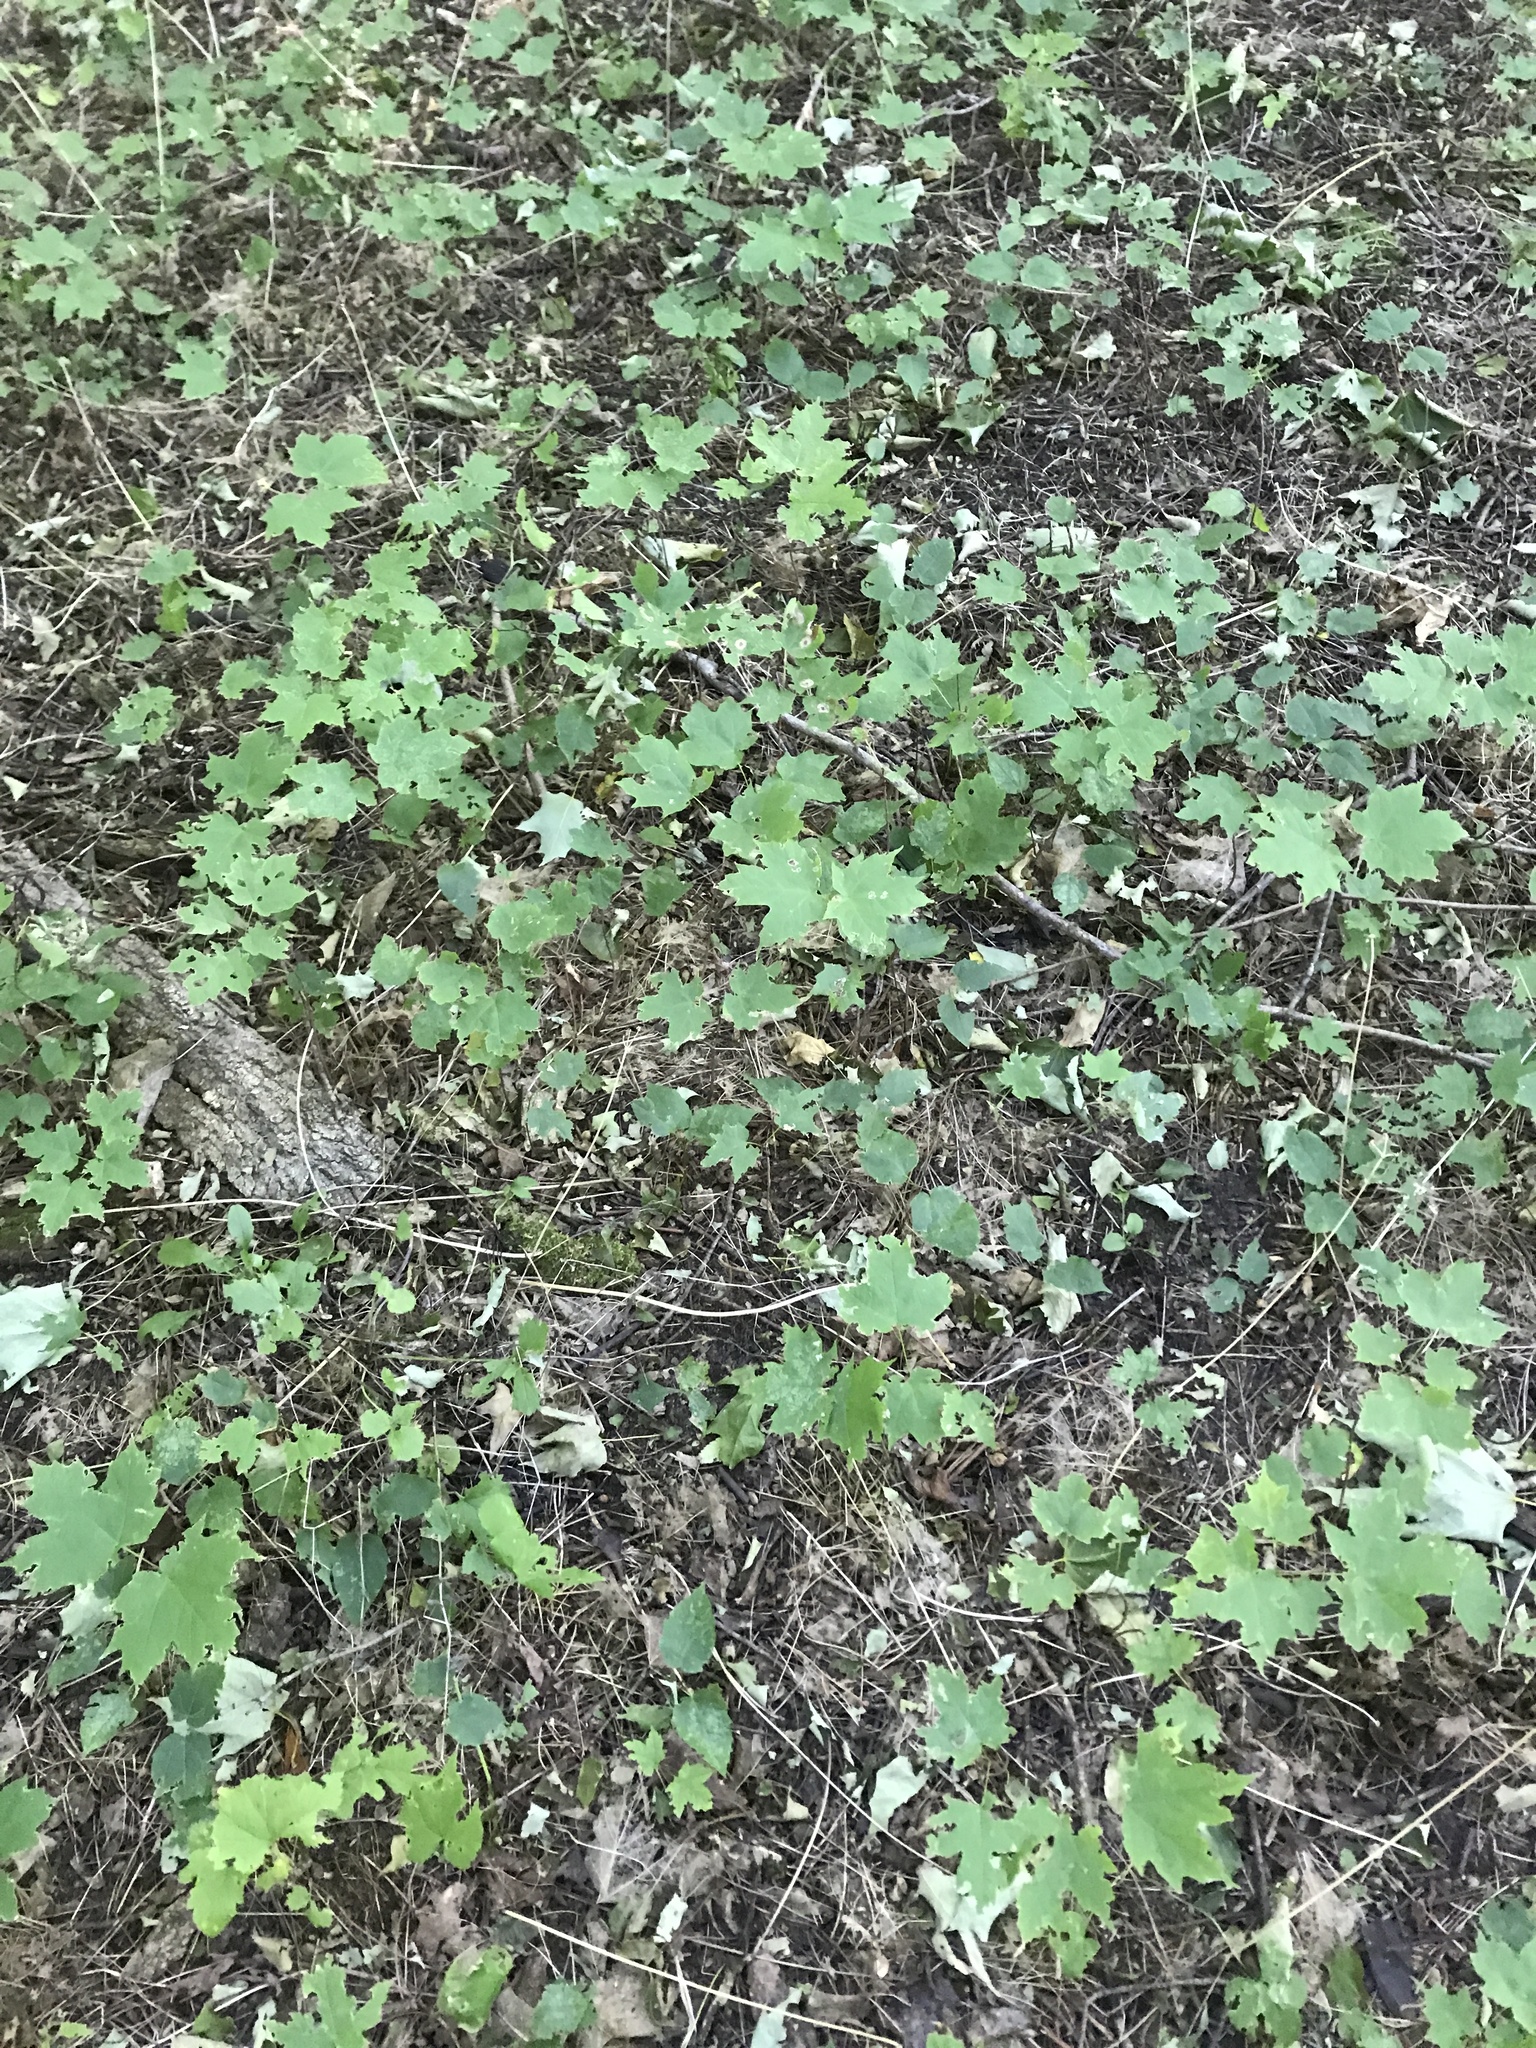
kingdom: Plantae
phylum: Tracheophyta
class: Magnoliopsida
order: Sapindales
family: Sapindaceae
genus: Acer
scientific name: Acer saccharum
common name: Sugar maple
